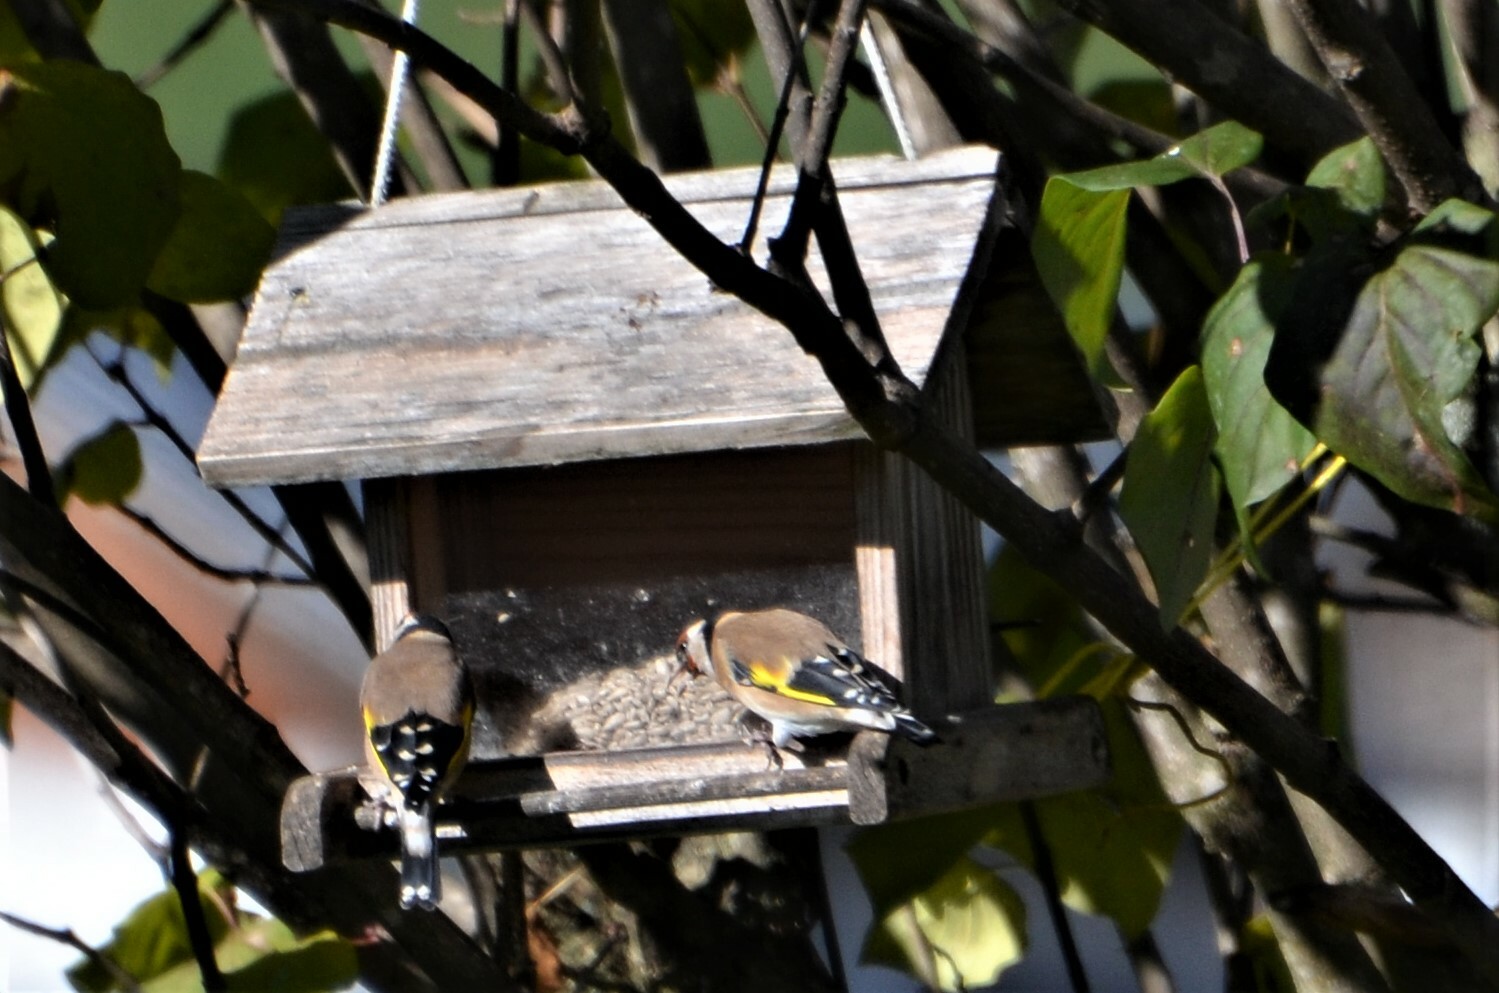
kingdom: Animalia
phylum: Chordata
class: Aves
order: Passeriformes
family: Fringillidae
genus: Carduelis
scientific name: Carduelis carduelis
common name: European goldfinch
